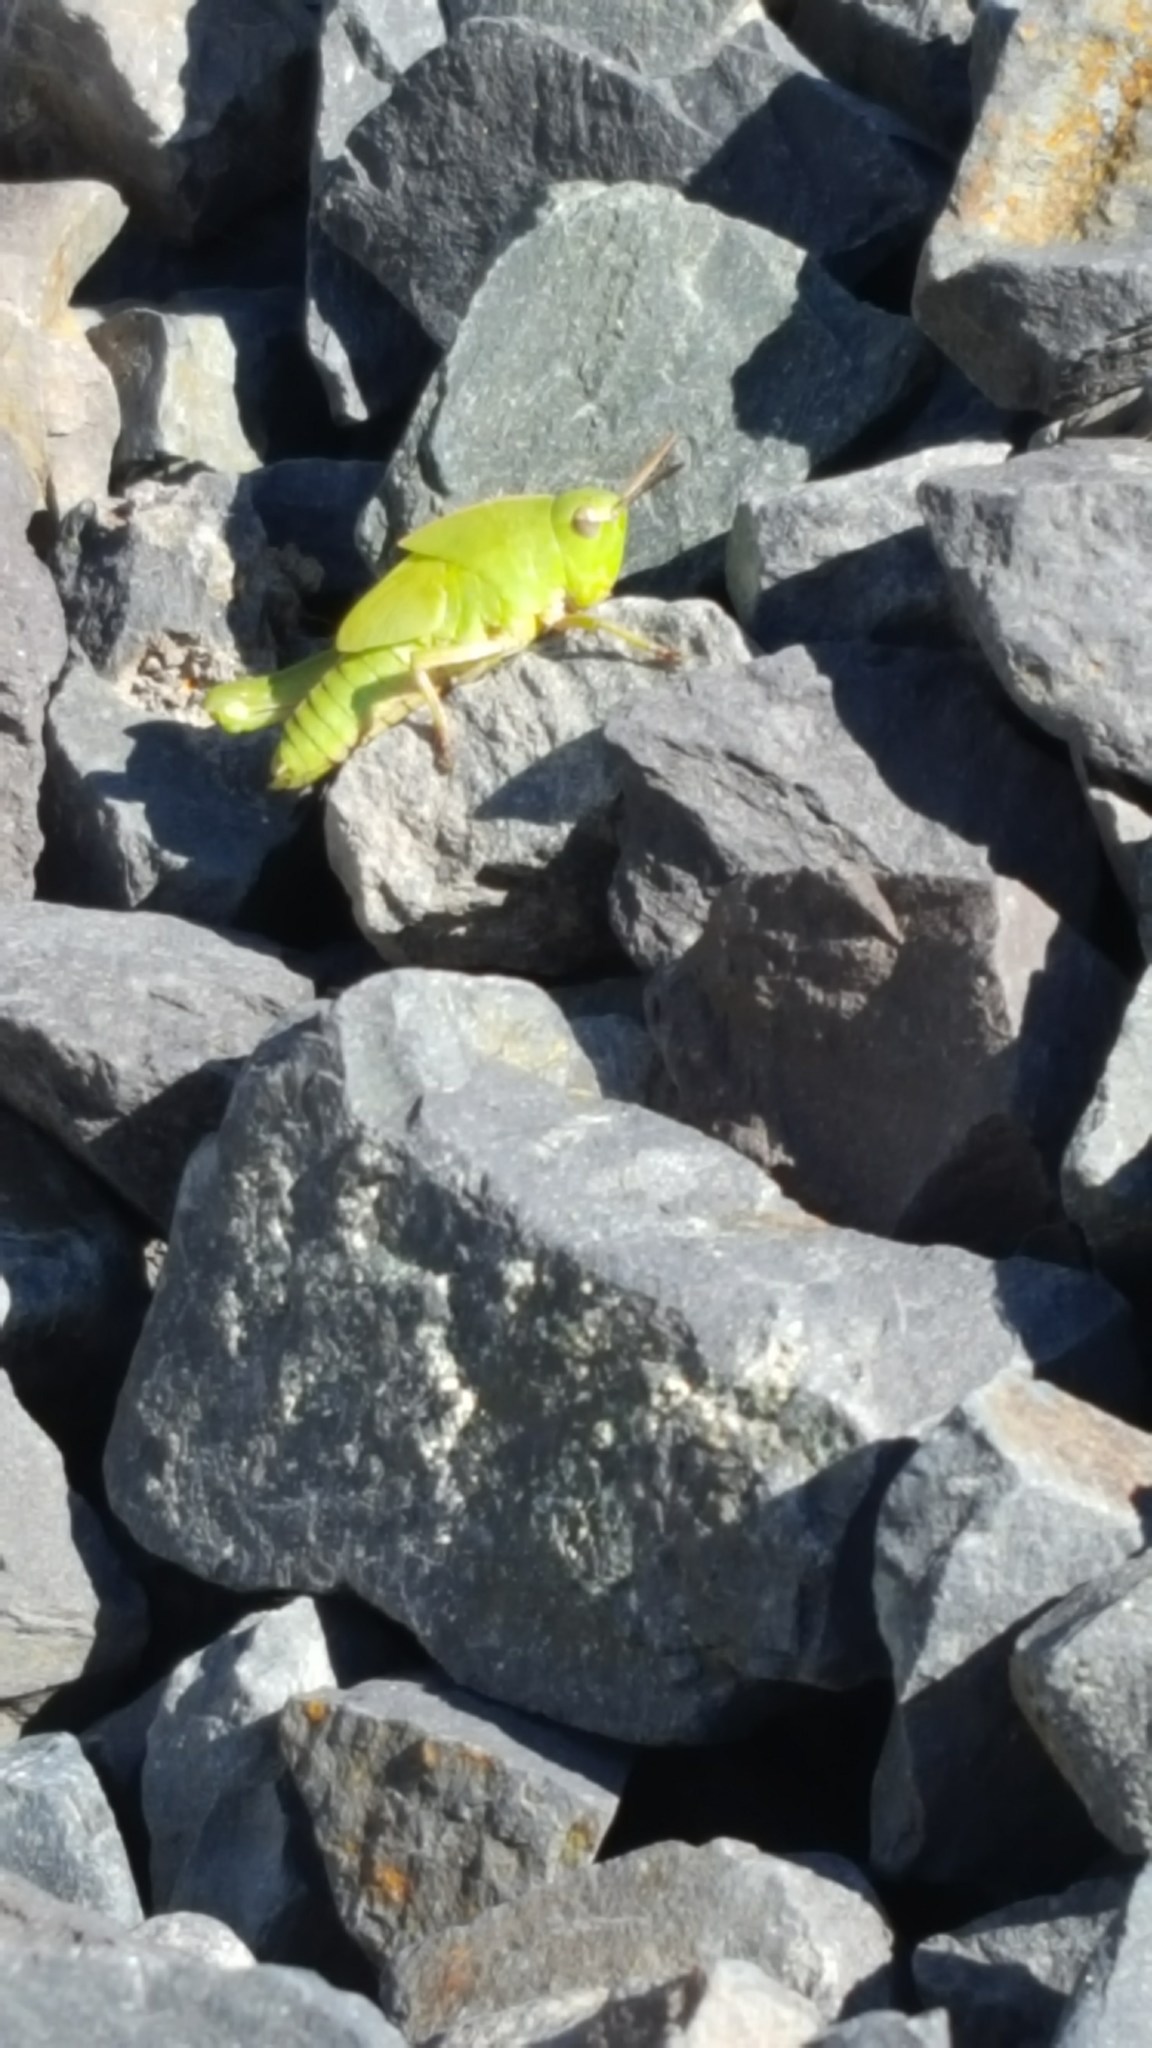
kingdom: Animalia
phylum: Arthropoda
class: Insecta
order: Orthoptera
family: Acrididae
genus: Chortophaga
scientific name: Chortophaga viridifasciata
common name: Green-striped grasshopper
